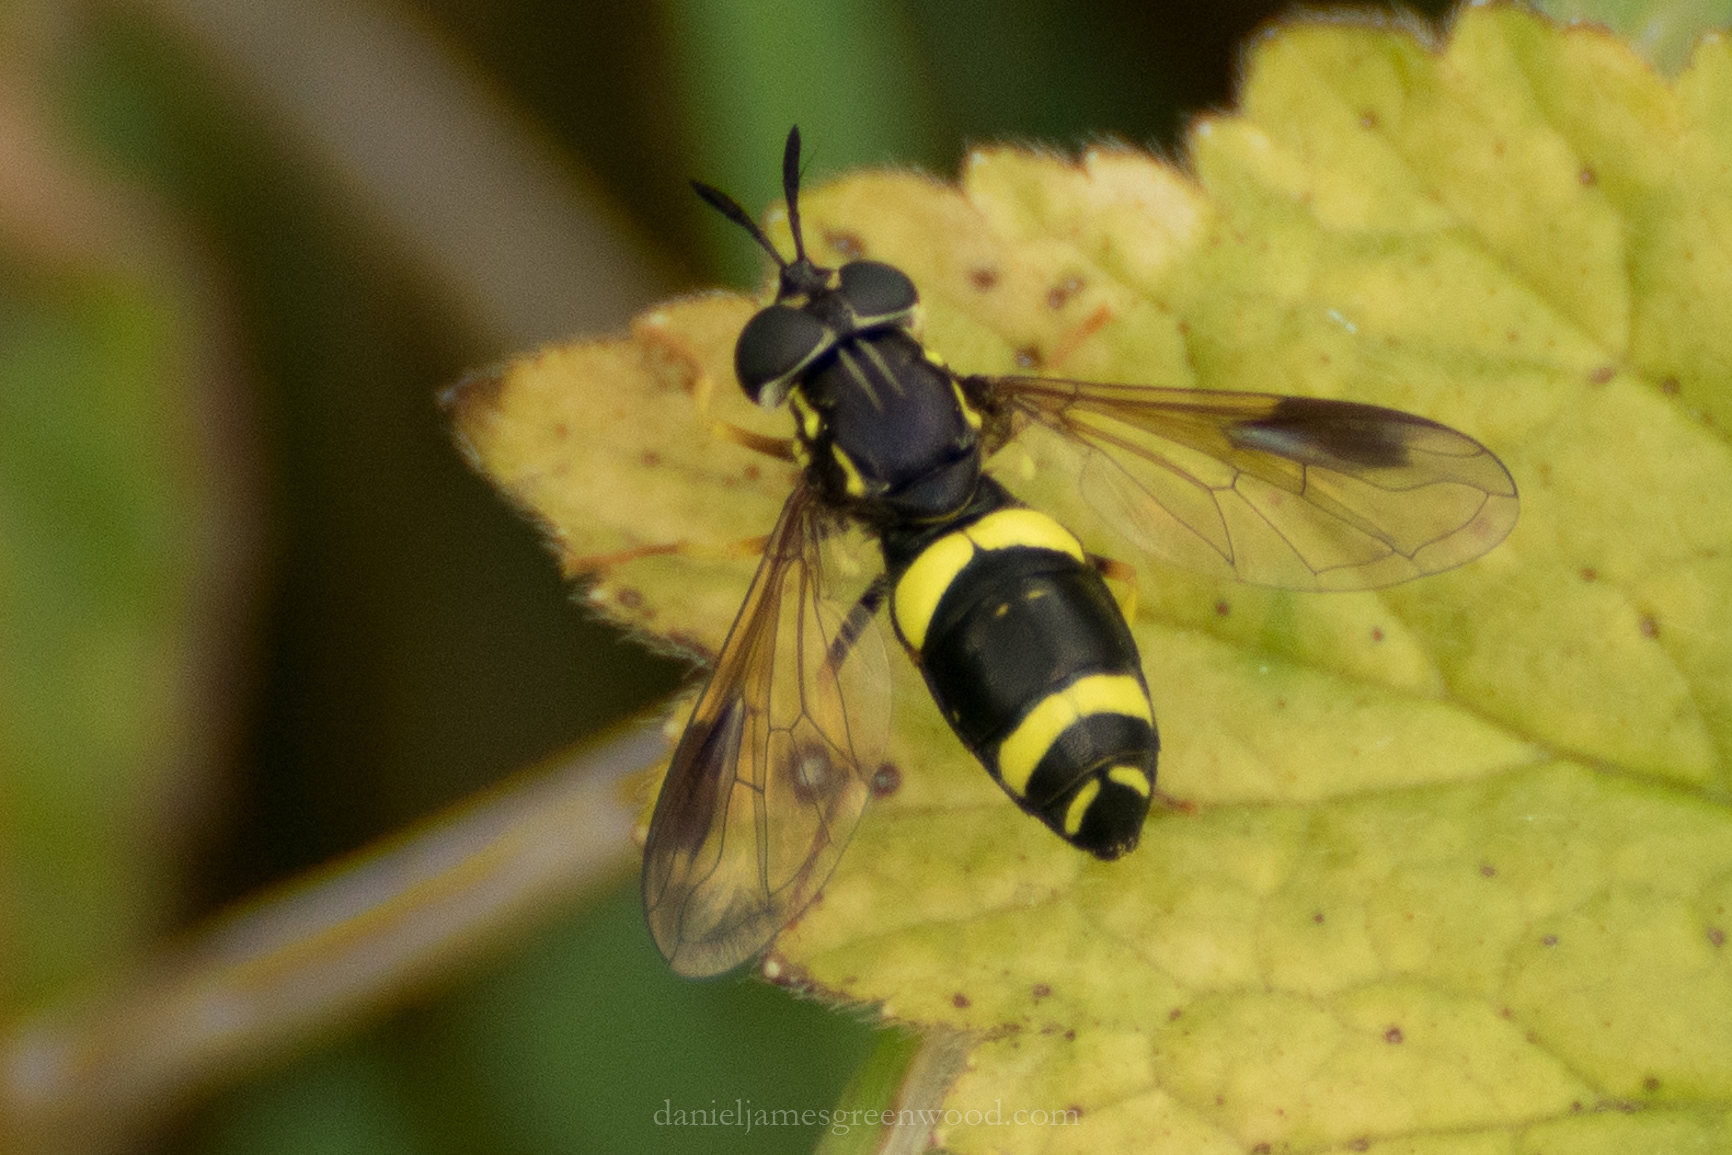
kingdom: Animalia
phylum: Arthropoda
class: Insecta
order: Diptera
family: Syrphidae
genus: Chrysotoxum
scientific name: Chrysotoxum bicincta
